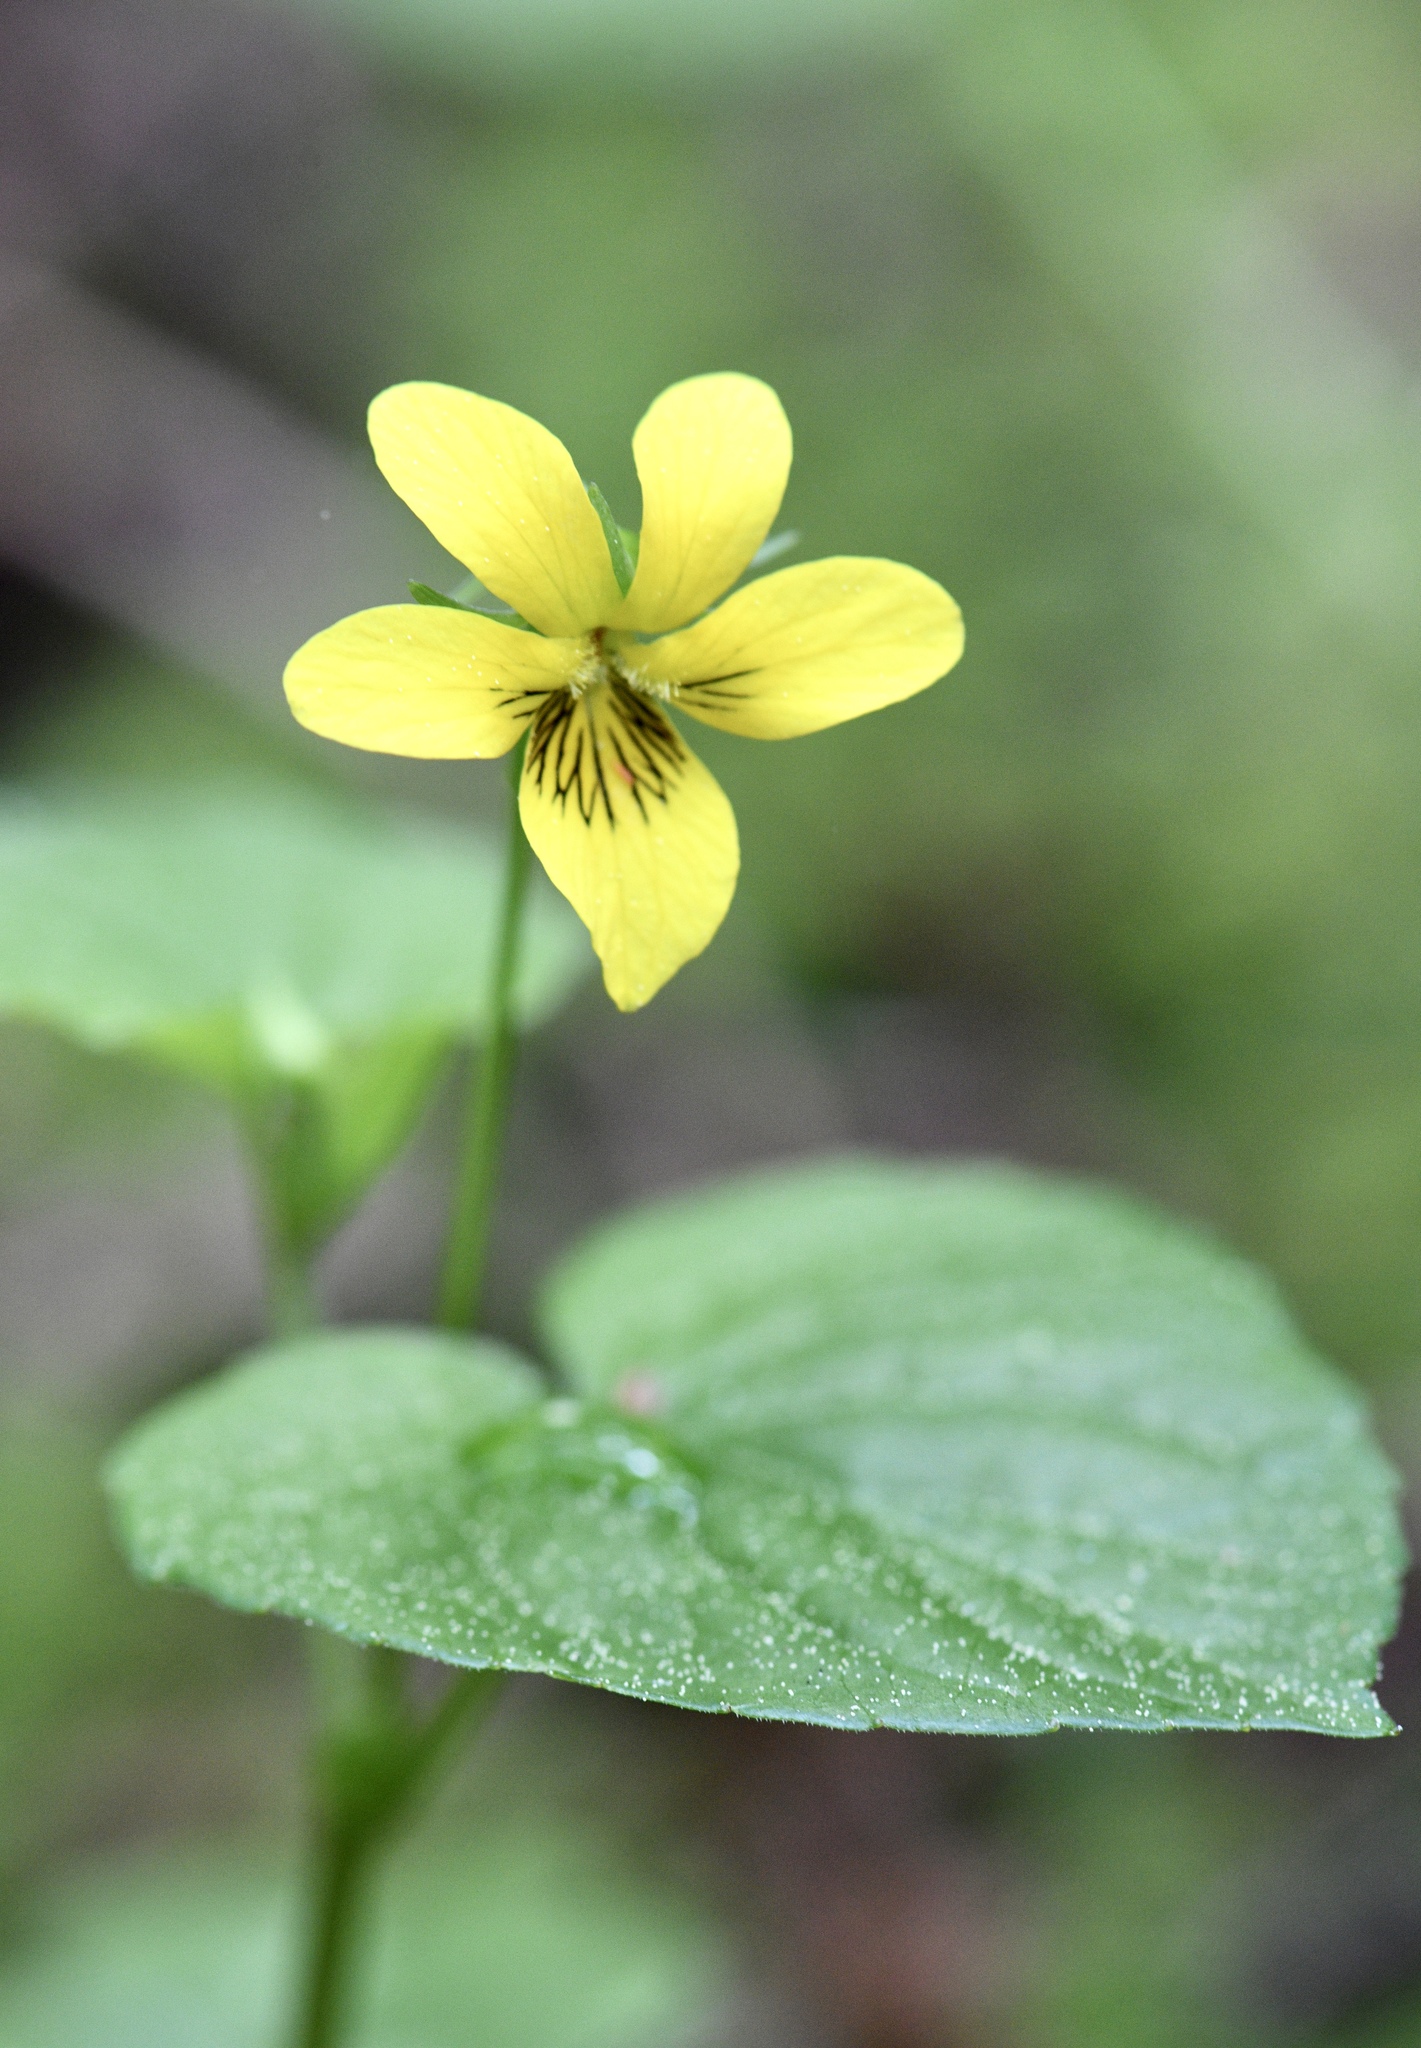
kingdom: Plantae
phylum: Tracheophyta
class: Magnoliopsida
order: Malpighiales
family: Violaceae
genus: Viola
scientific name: Viola glabella
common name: Stream violet
